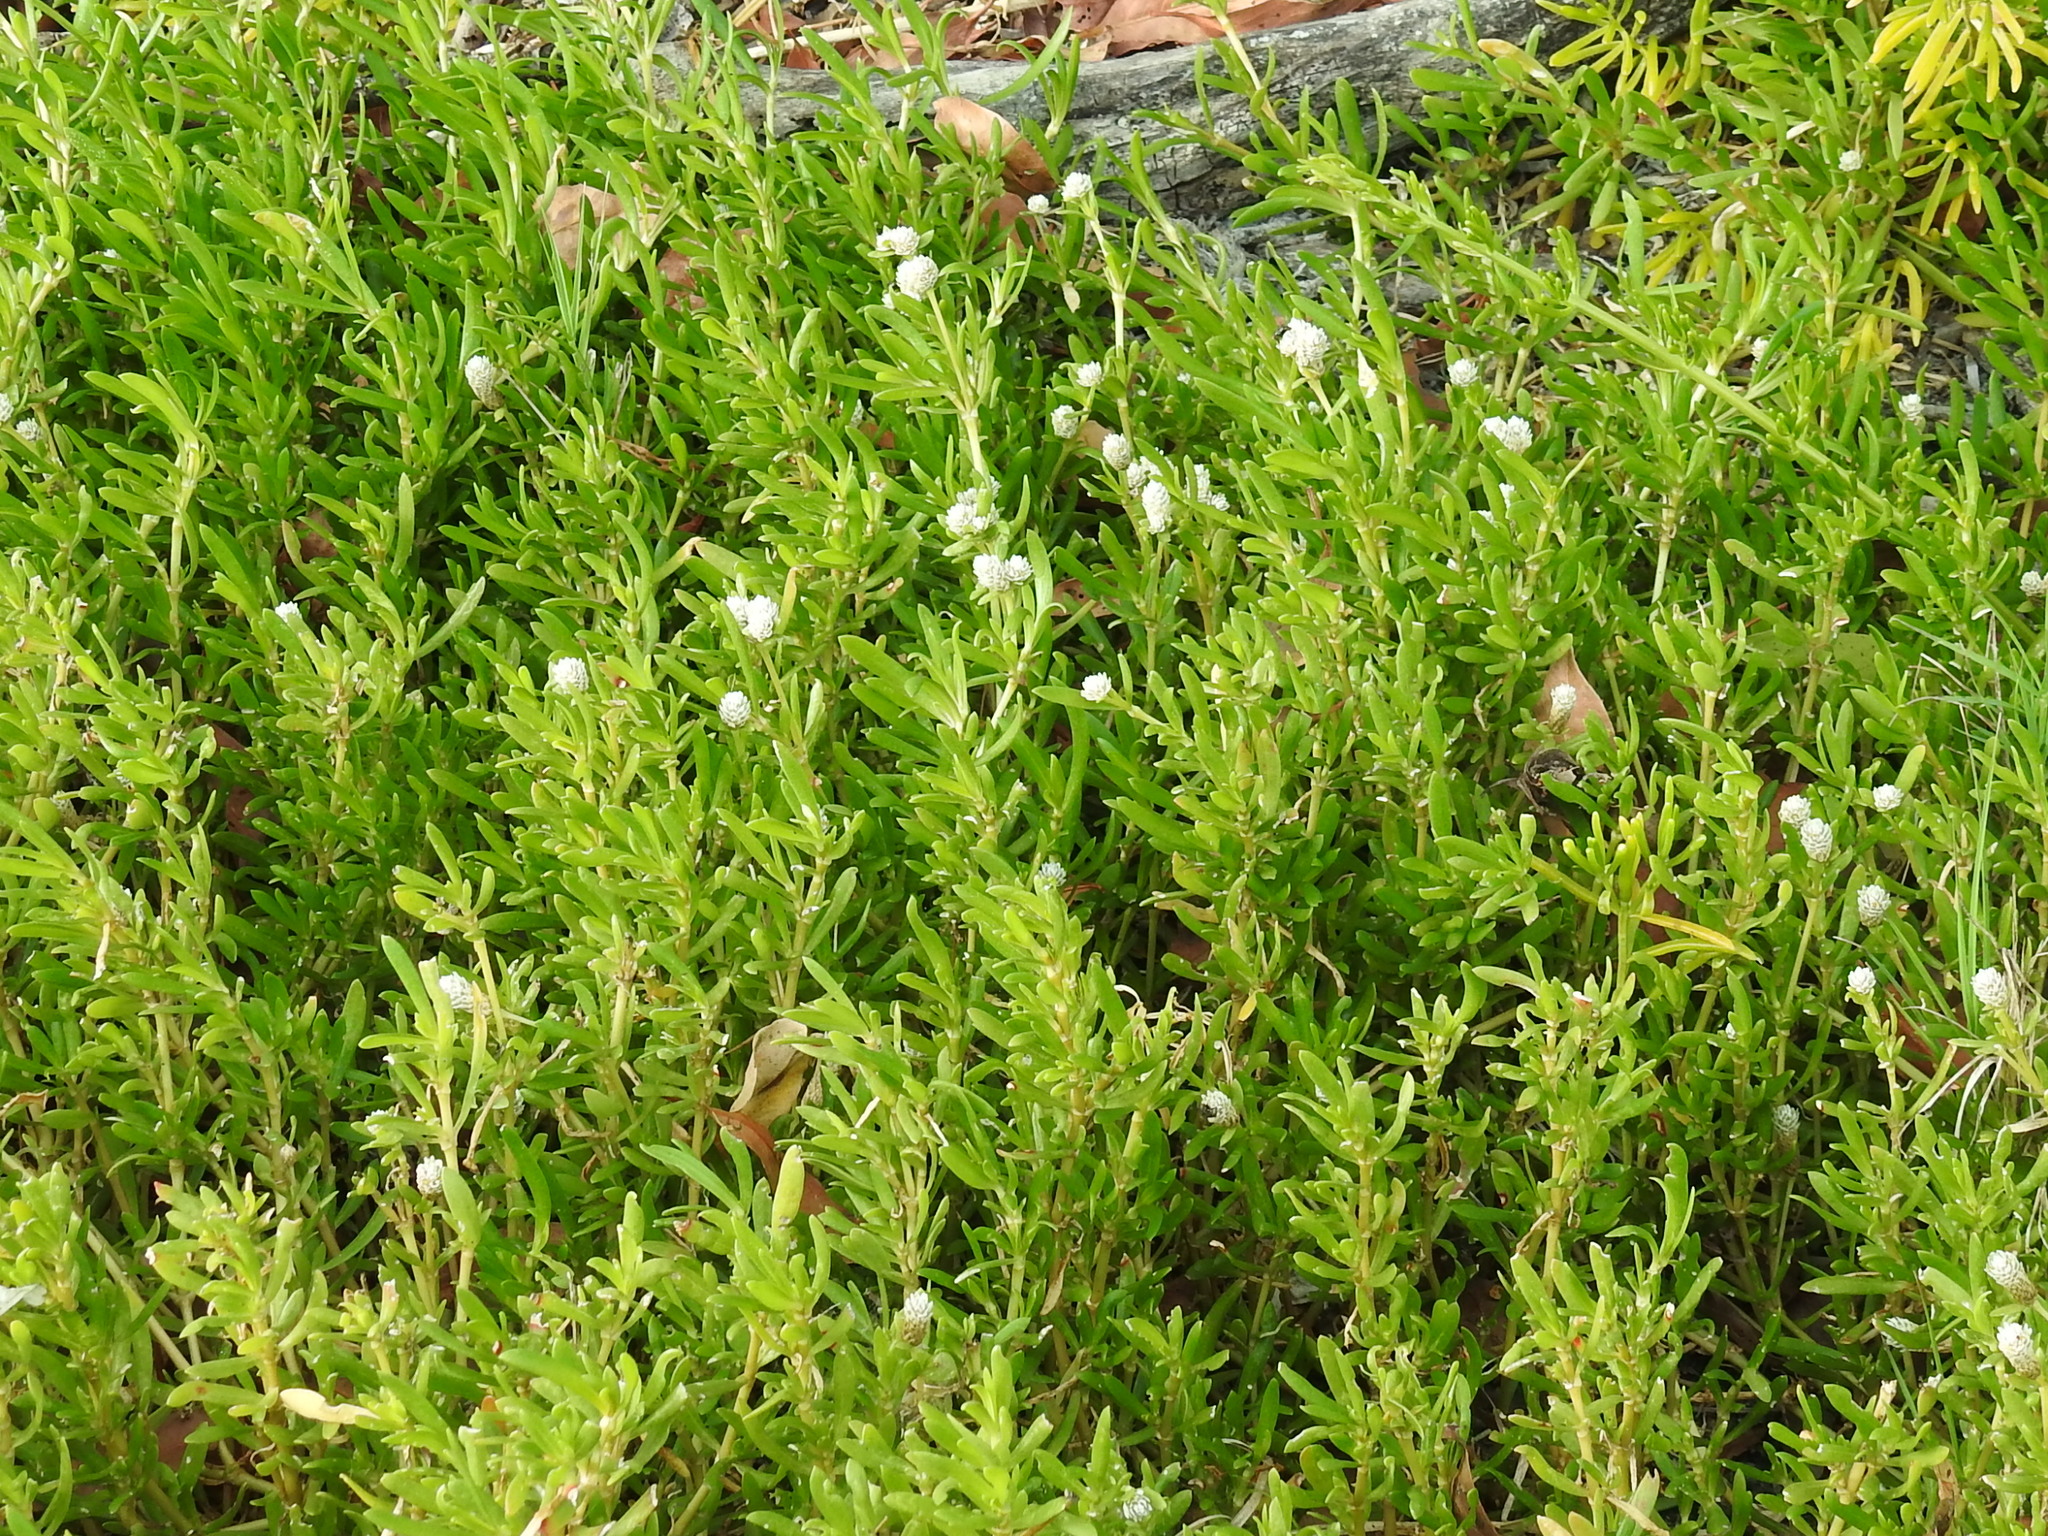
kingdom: Plantae
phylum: Tracheophyta
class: Magnoliopsida
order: Caryophyllales
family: Amaranthaceae
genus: Gomphrena
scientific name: Gomphrena vermicularis
